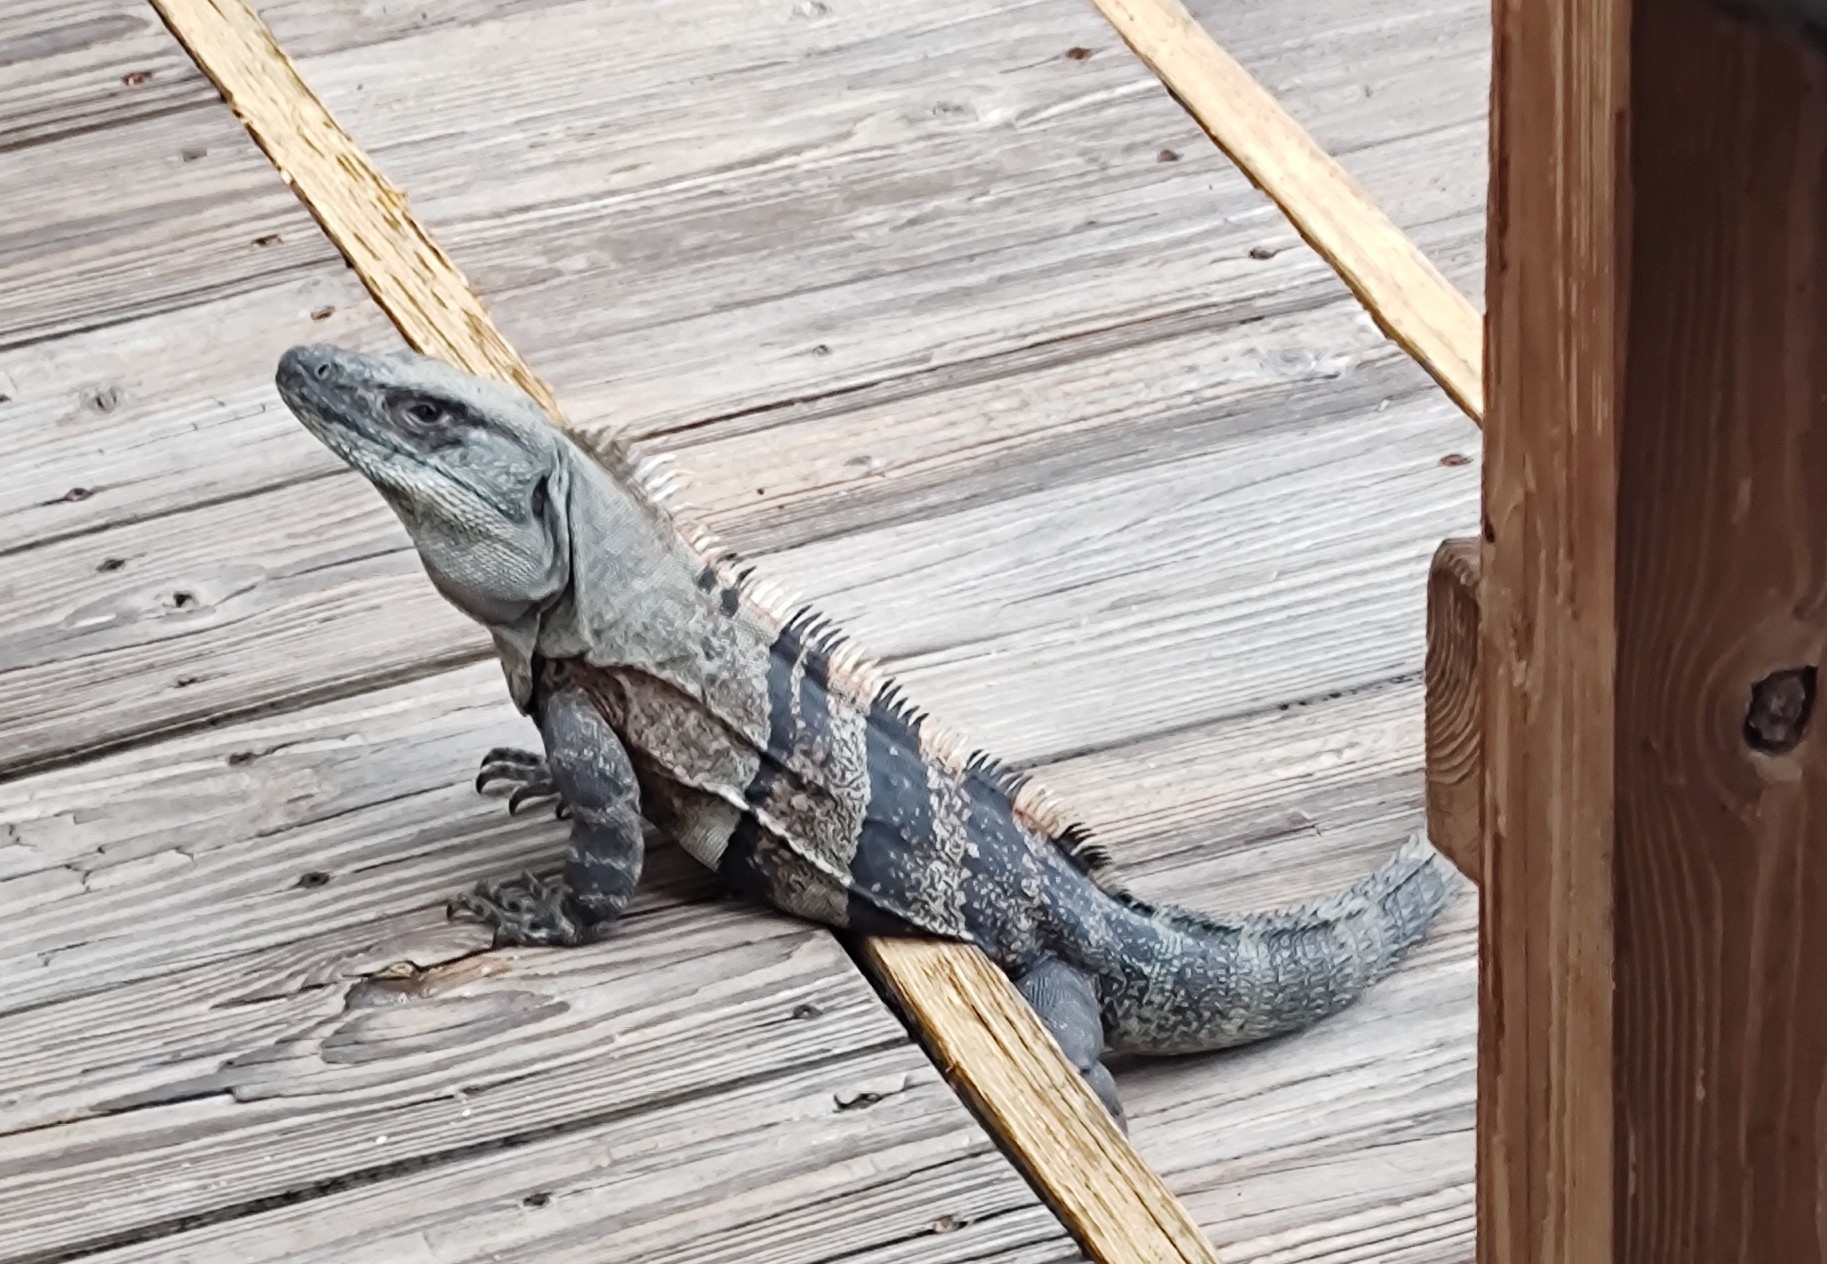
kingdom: Animalia
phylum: Chordata
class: Squamata
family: Iguanidae
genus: Ctenosaura
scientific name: Ctenosaura similis
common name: Black spiny-tailed iguana
